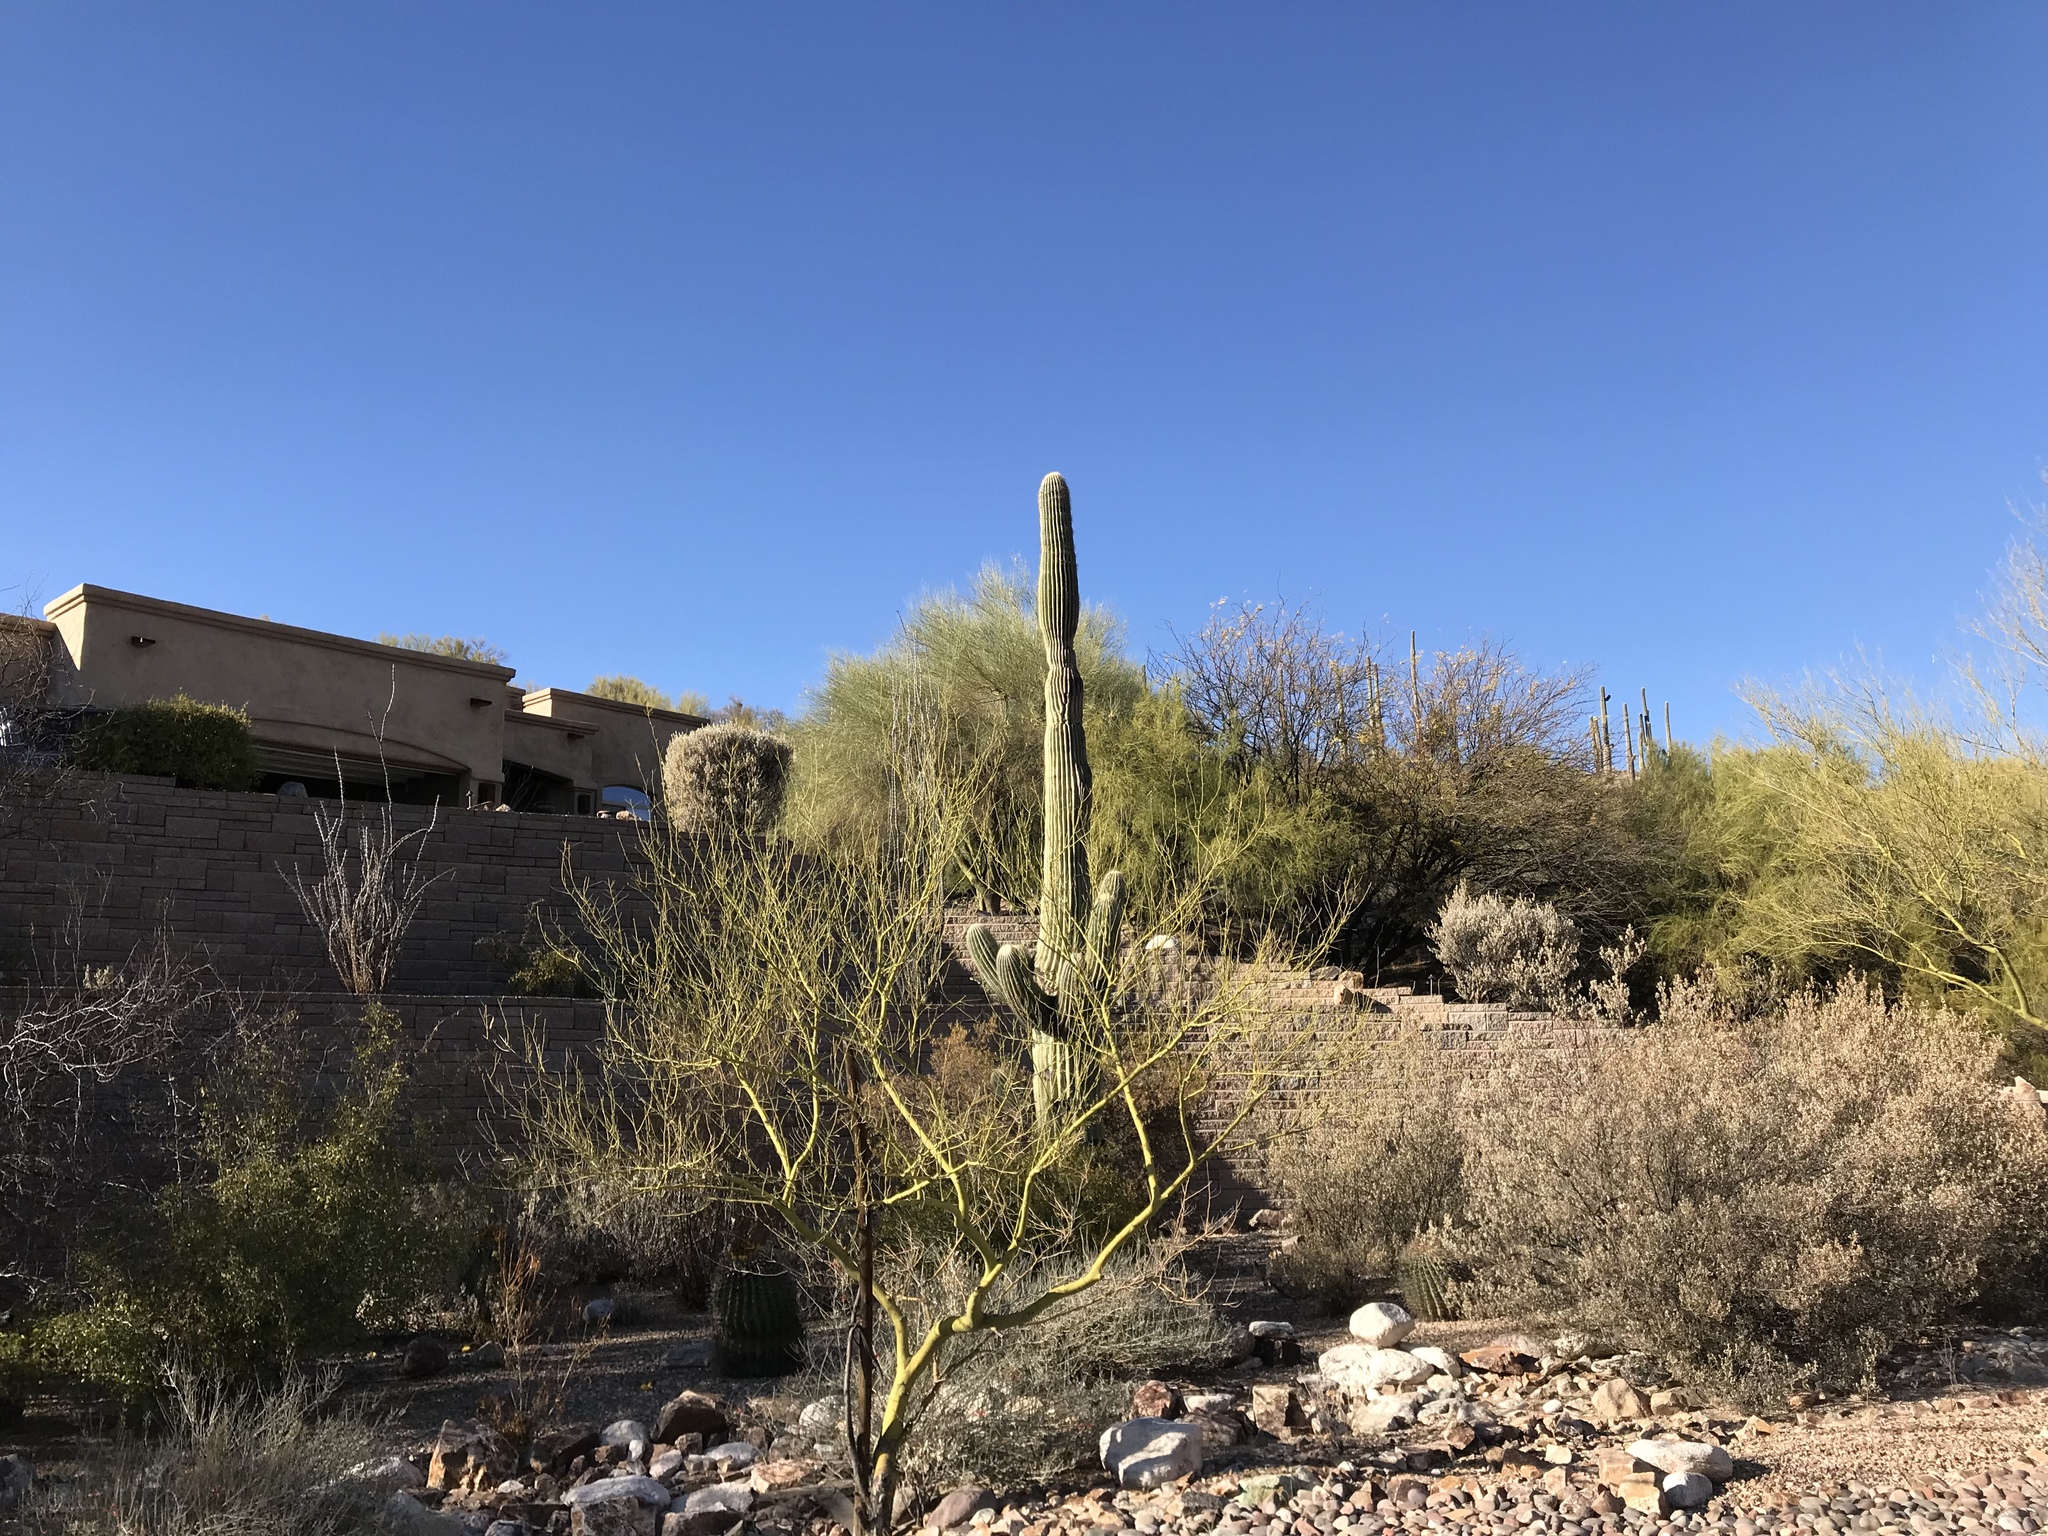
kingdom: Plantae
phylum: Tracheophyta
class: Magnoliopsida
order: Caryophyllales
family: Cactaceae
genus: Carnegiea
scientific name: Carnegiea gigantea
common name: Saguaro
